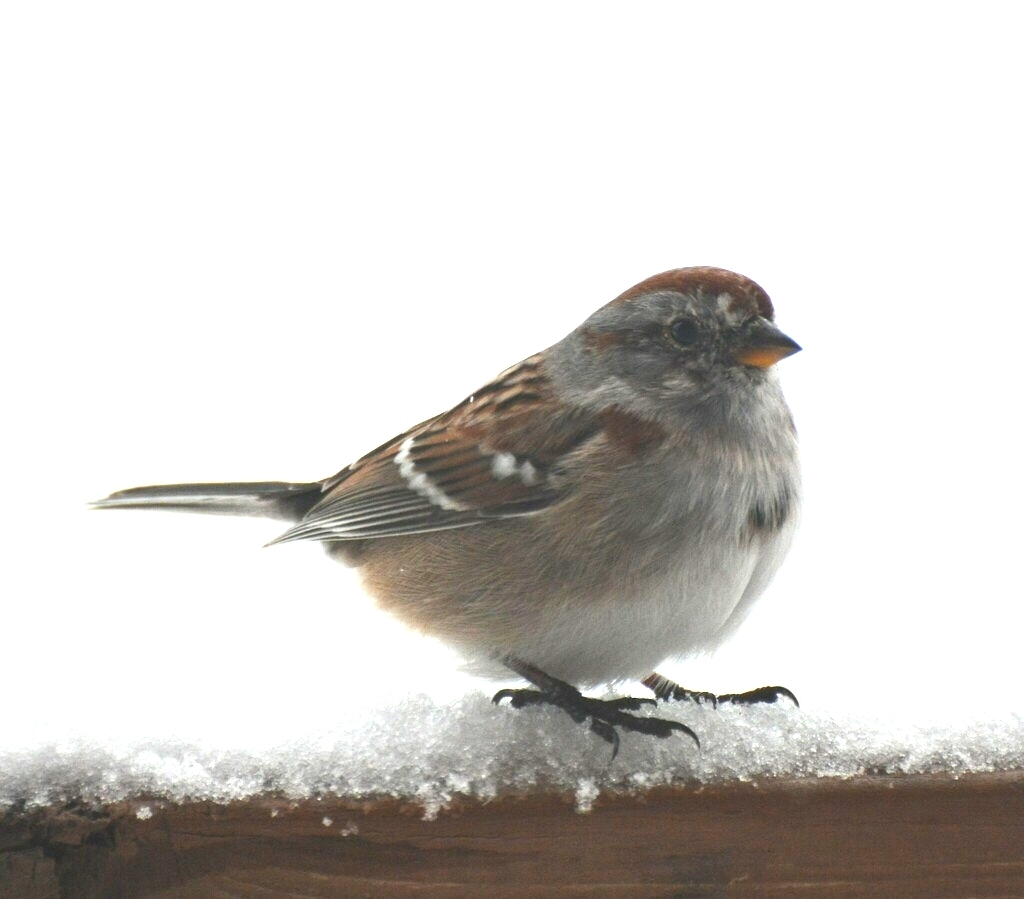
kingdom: Animalia
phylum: Chordata
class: Aves
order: Passeriformes
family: Passerellidae
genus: Spizelloides
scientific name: Spizelloides arborea
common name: American tree sparrow
